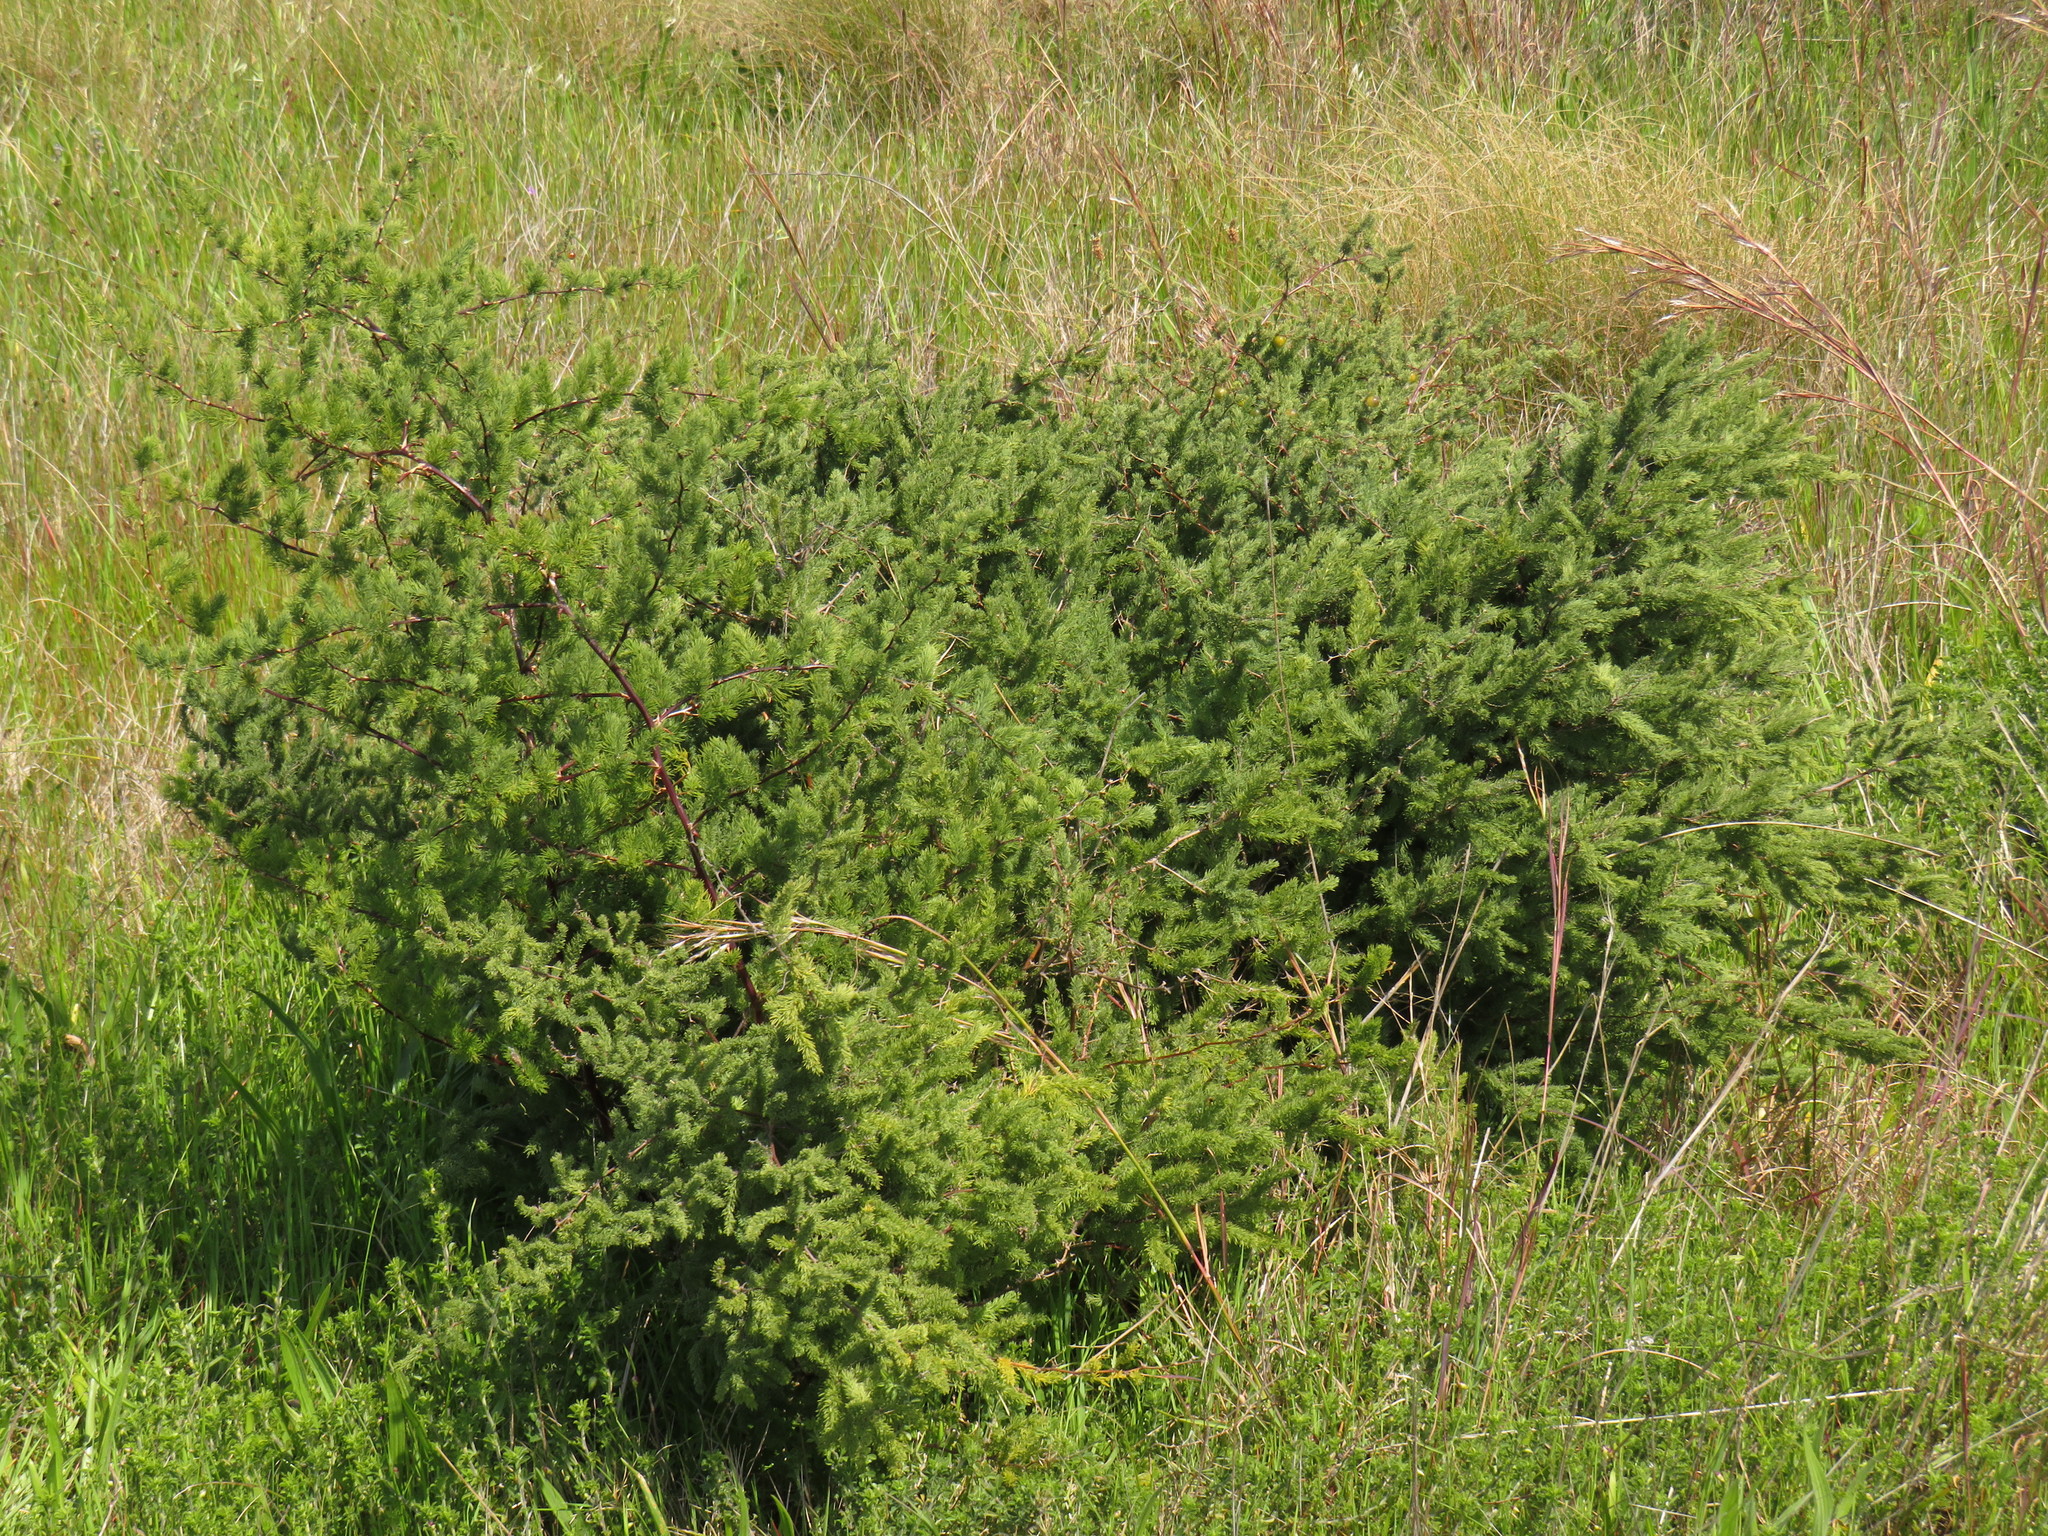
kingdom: Plantae
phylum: Tracheophyta
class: Liliopsida
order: Asparagales
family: Asparagaceae
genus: Asparagus
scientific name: Asparagus rubicundus
